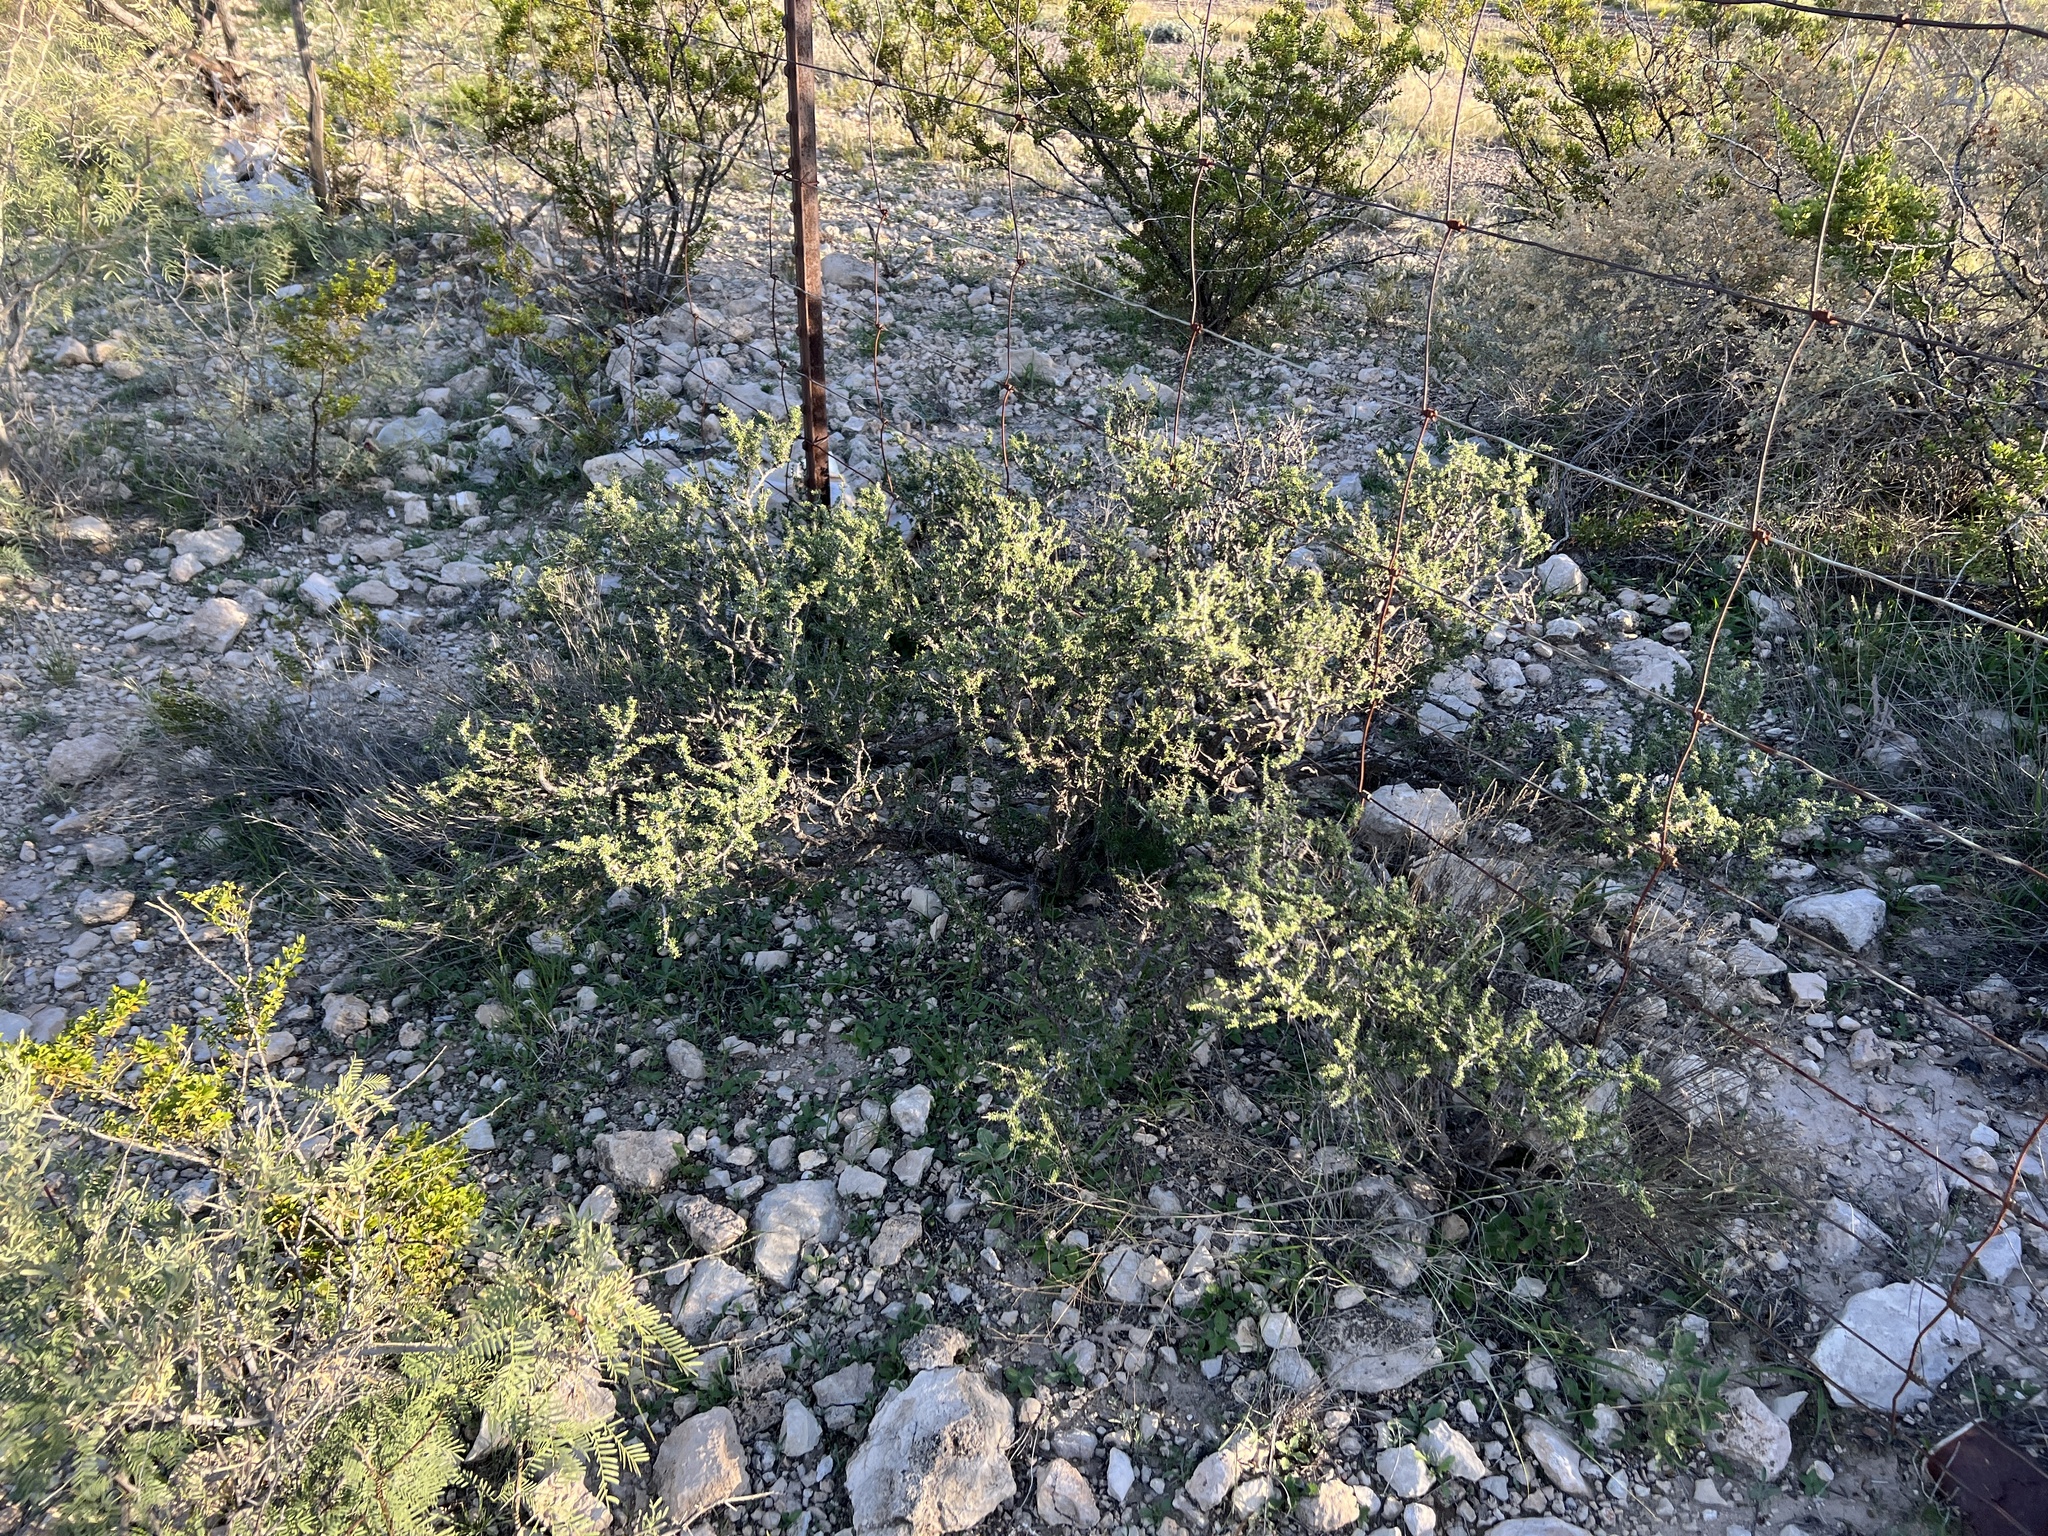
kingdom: Plantae
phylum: Tracheophyta
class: Magnoliopsida
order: Rosales
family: Rhamnaceae
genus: Condalia
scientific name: Condalia ericoides
